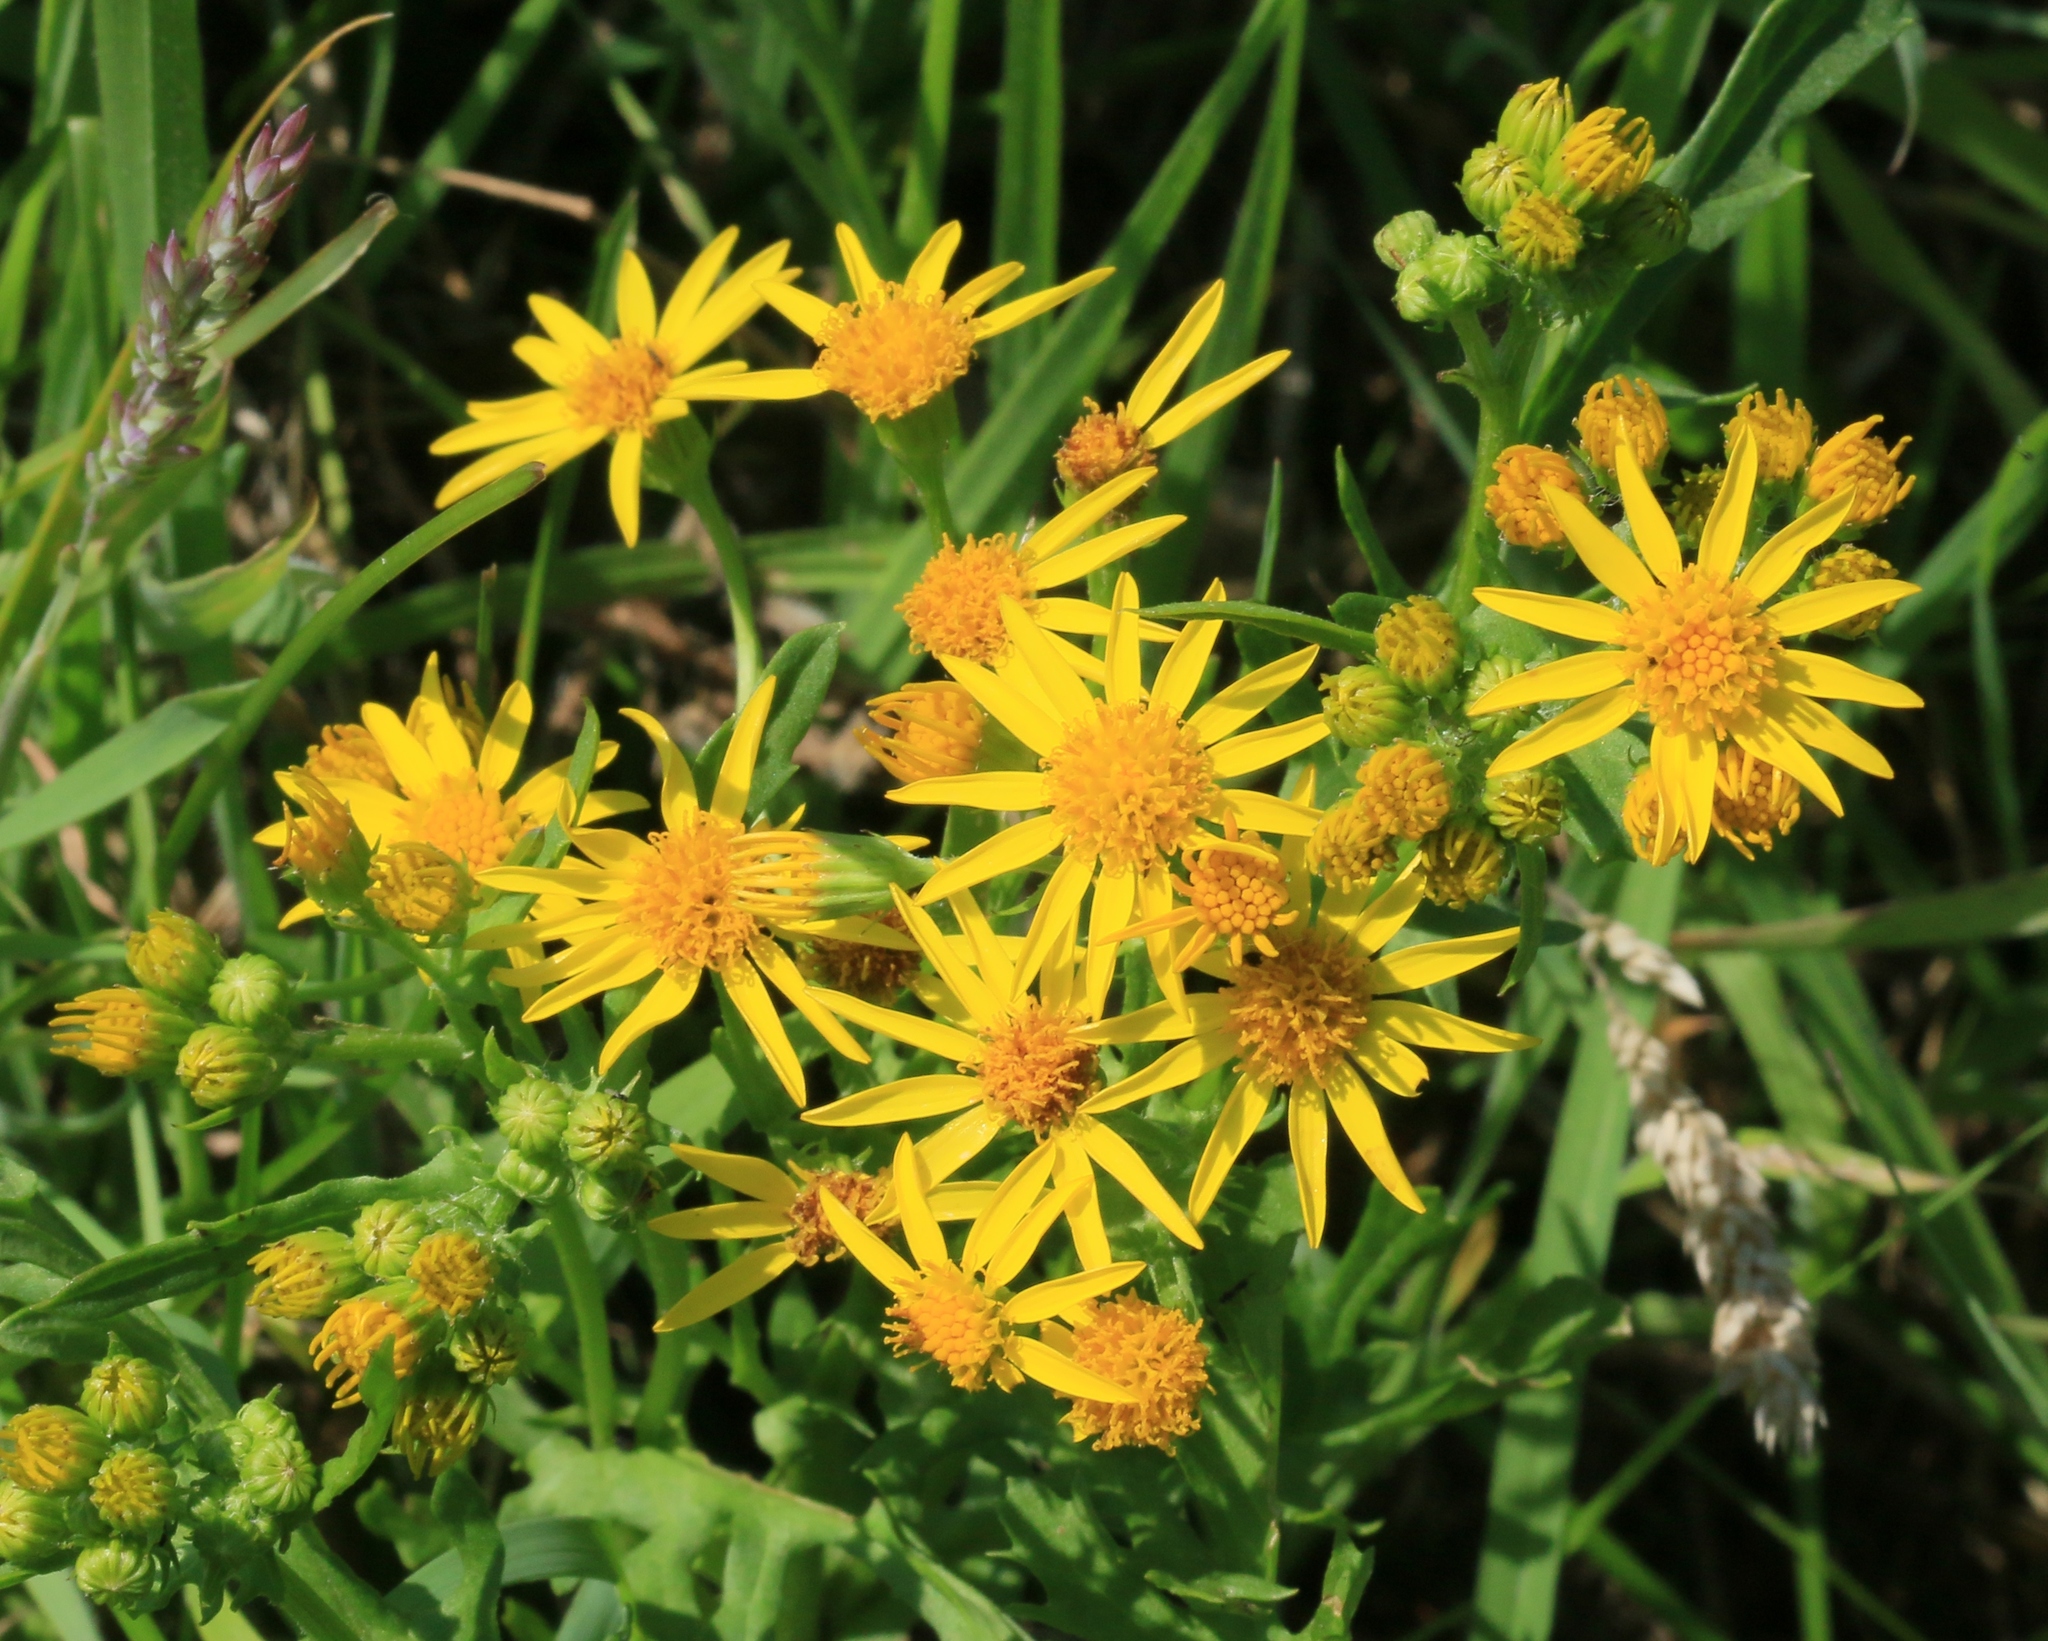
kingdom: Plantae
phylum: Tracheophyta
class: Magnoliopsida
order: Asterales
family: Asteraceae
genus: Jacobaea
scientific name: Jacobaea vulgaris
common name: Stinking willie
